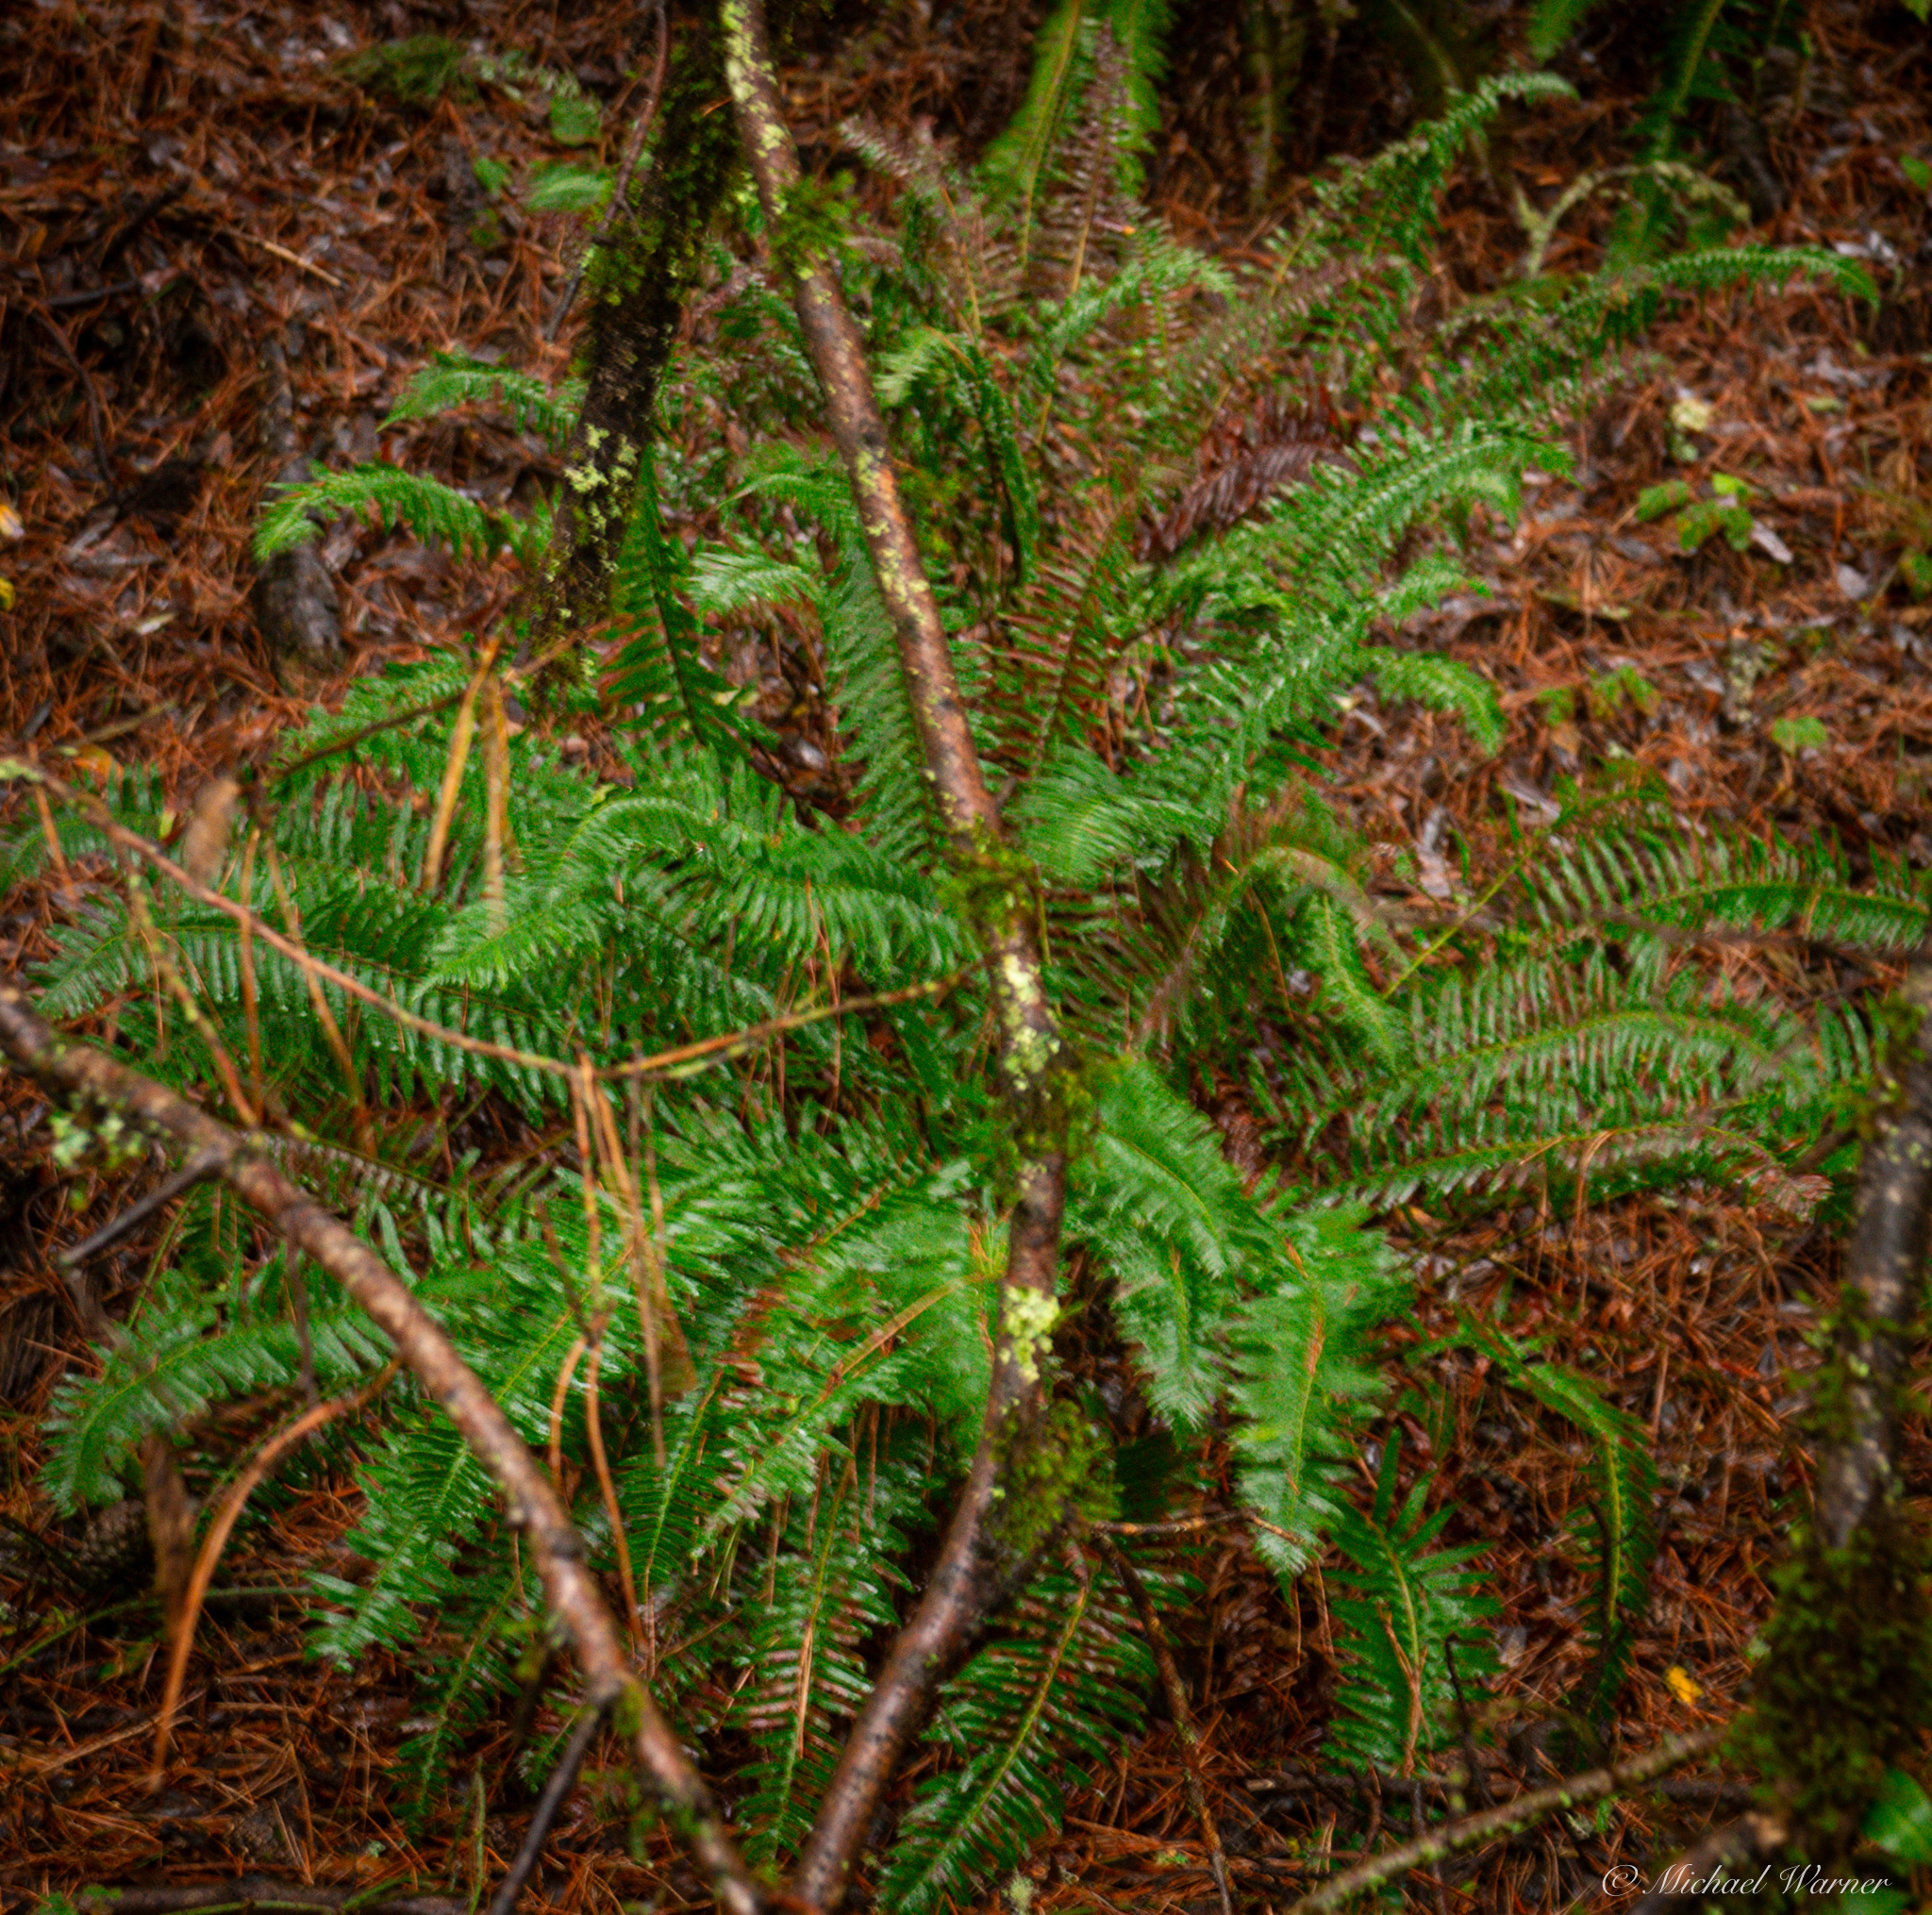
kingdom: Plantae
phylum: Tracheophyta
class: Polypodiopsida
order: Polypodiales
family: Dryopteridaceae
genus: Polystichum
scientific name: Polystichum munitum
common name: Western sword-fern
